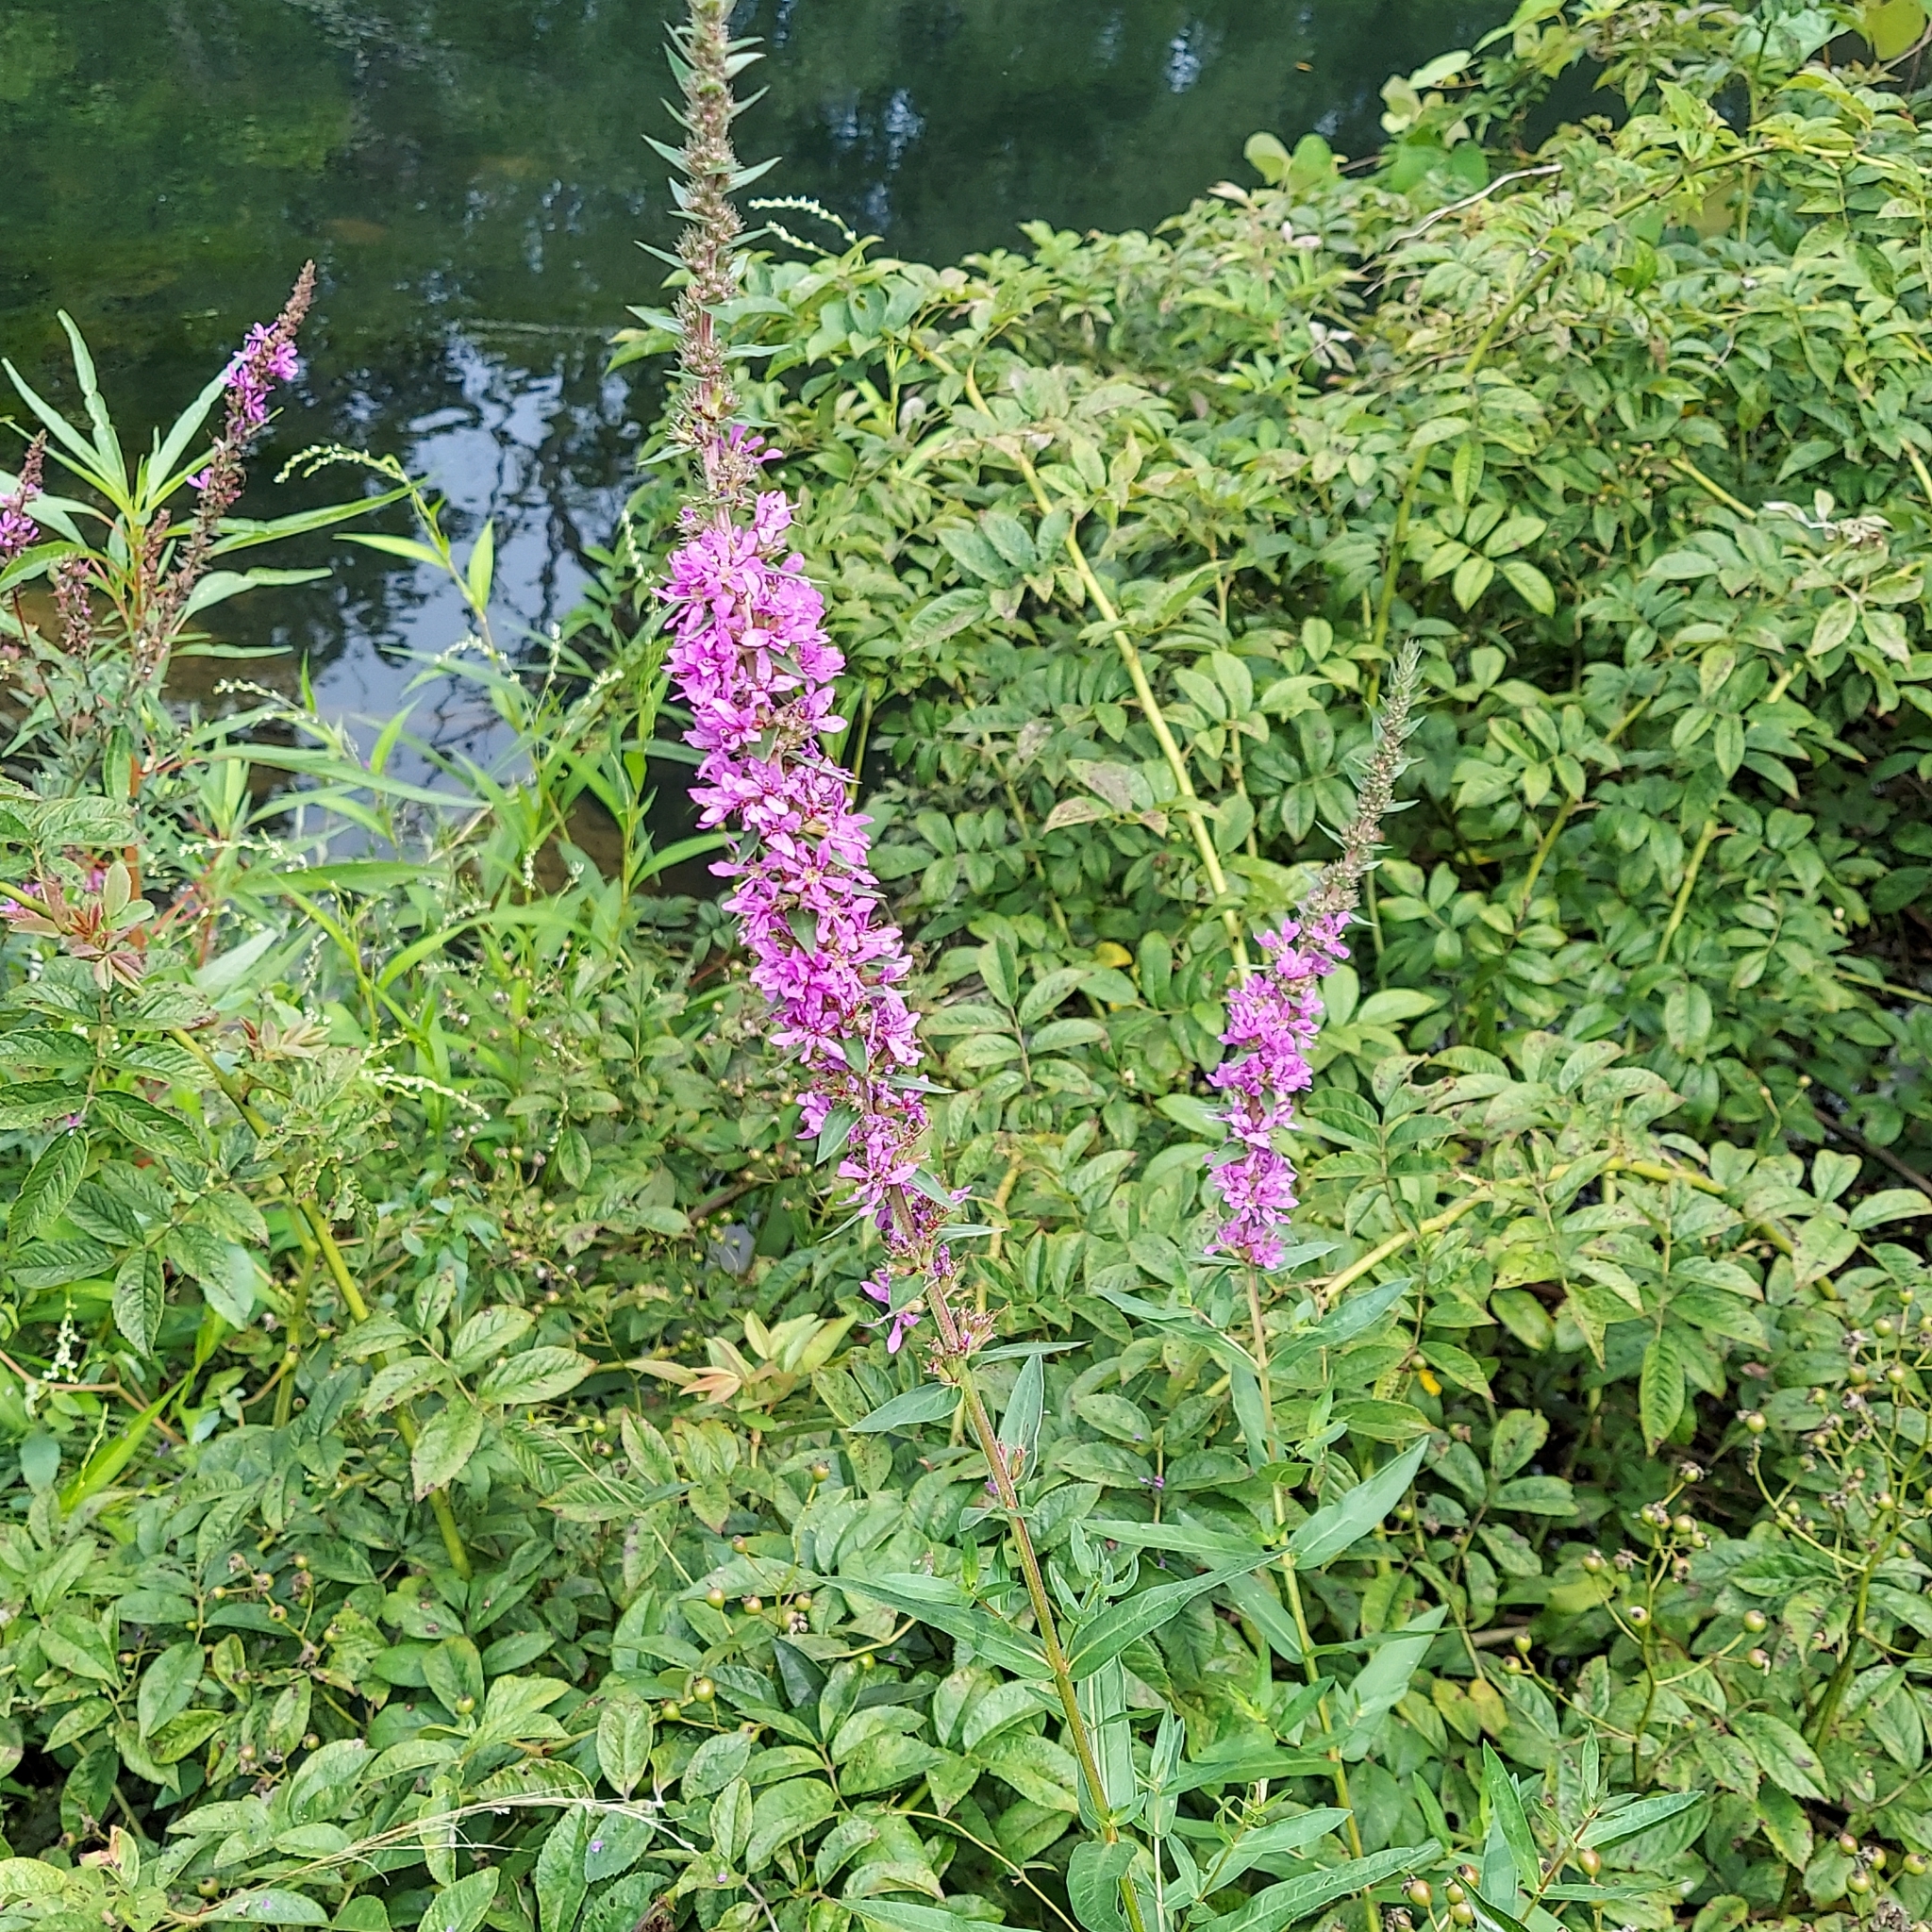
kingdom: Plantae
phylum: Tracheophyta
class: Magnoliopsida
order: Myrtales
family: Lythraceae
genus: Lythrum
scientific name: Lythrum salicaria
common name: Purple loosestrife
